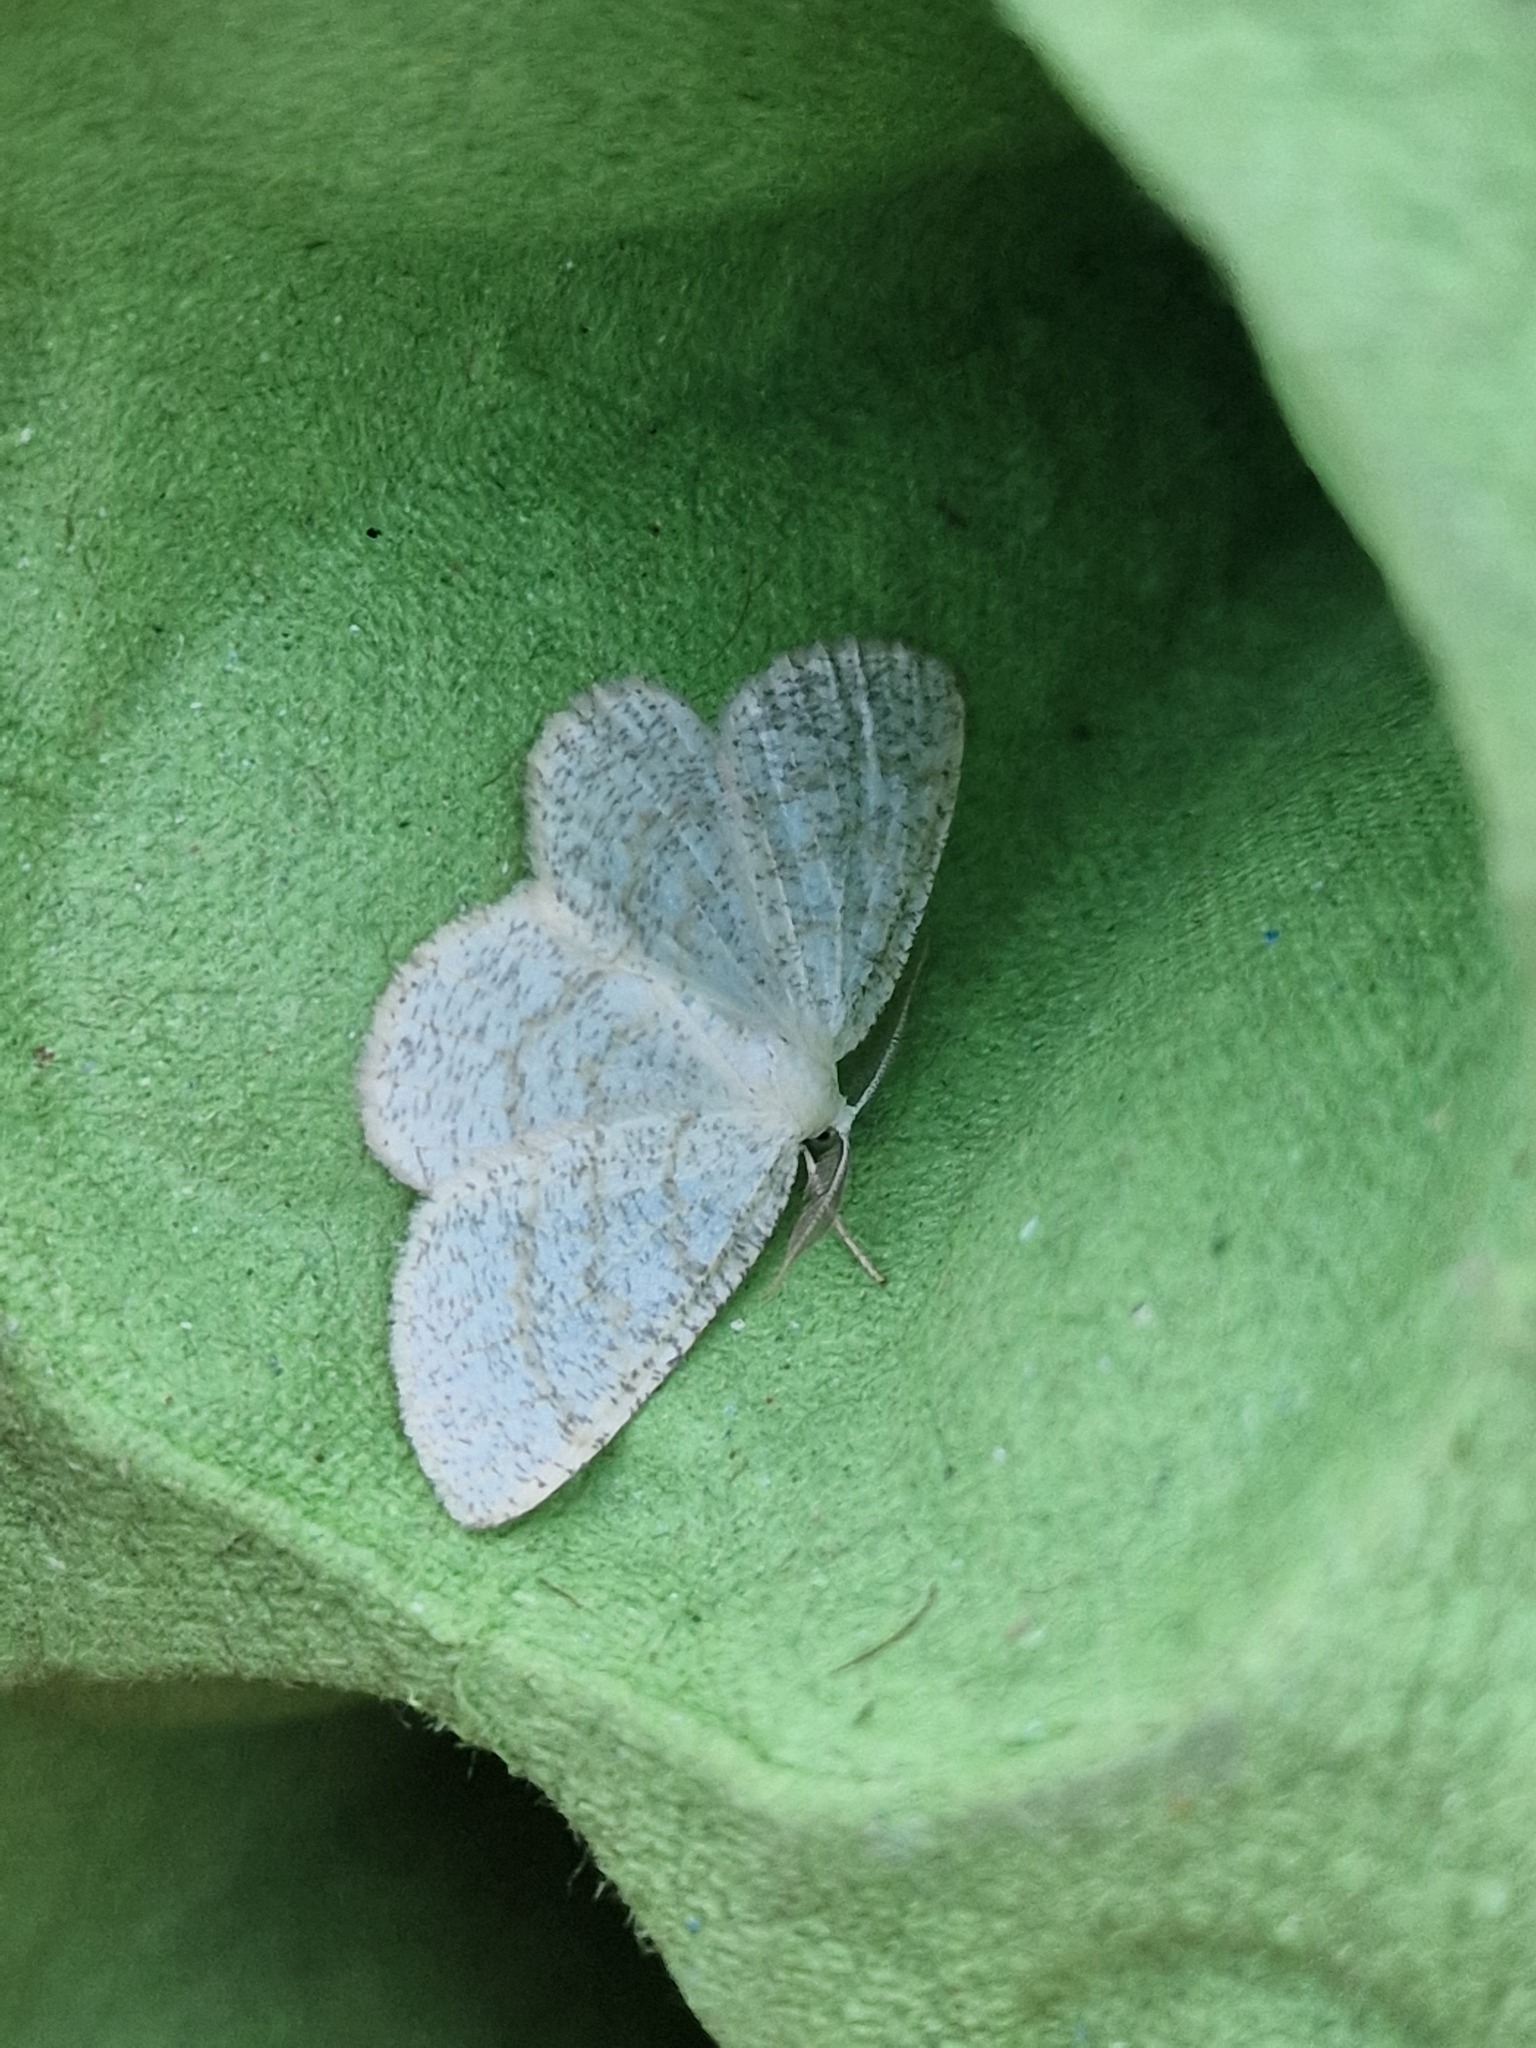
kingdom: Animalia
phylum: Arthropoda
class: Insecta
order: Lepidoptera
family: Geometridae
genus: Cabera
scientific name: Cabera exanthemata
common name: Common wave
